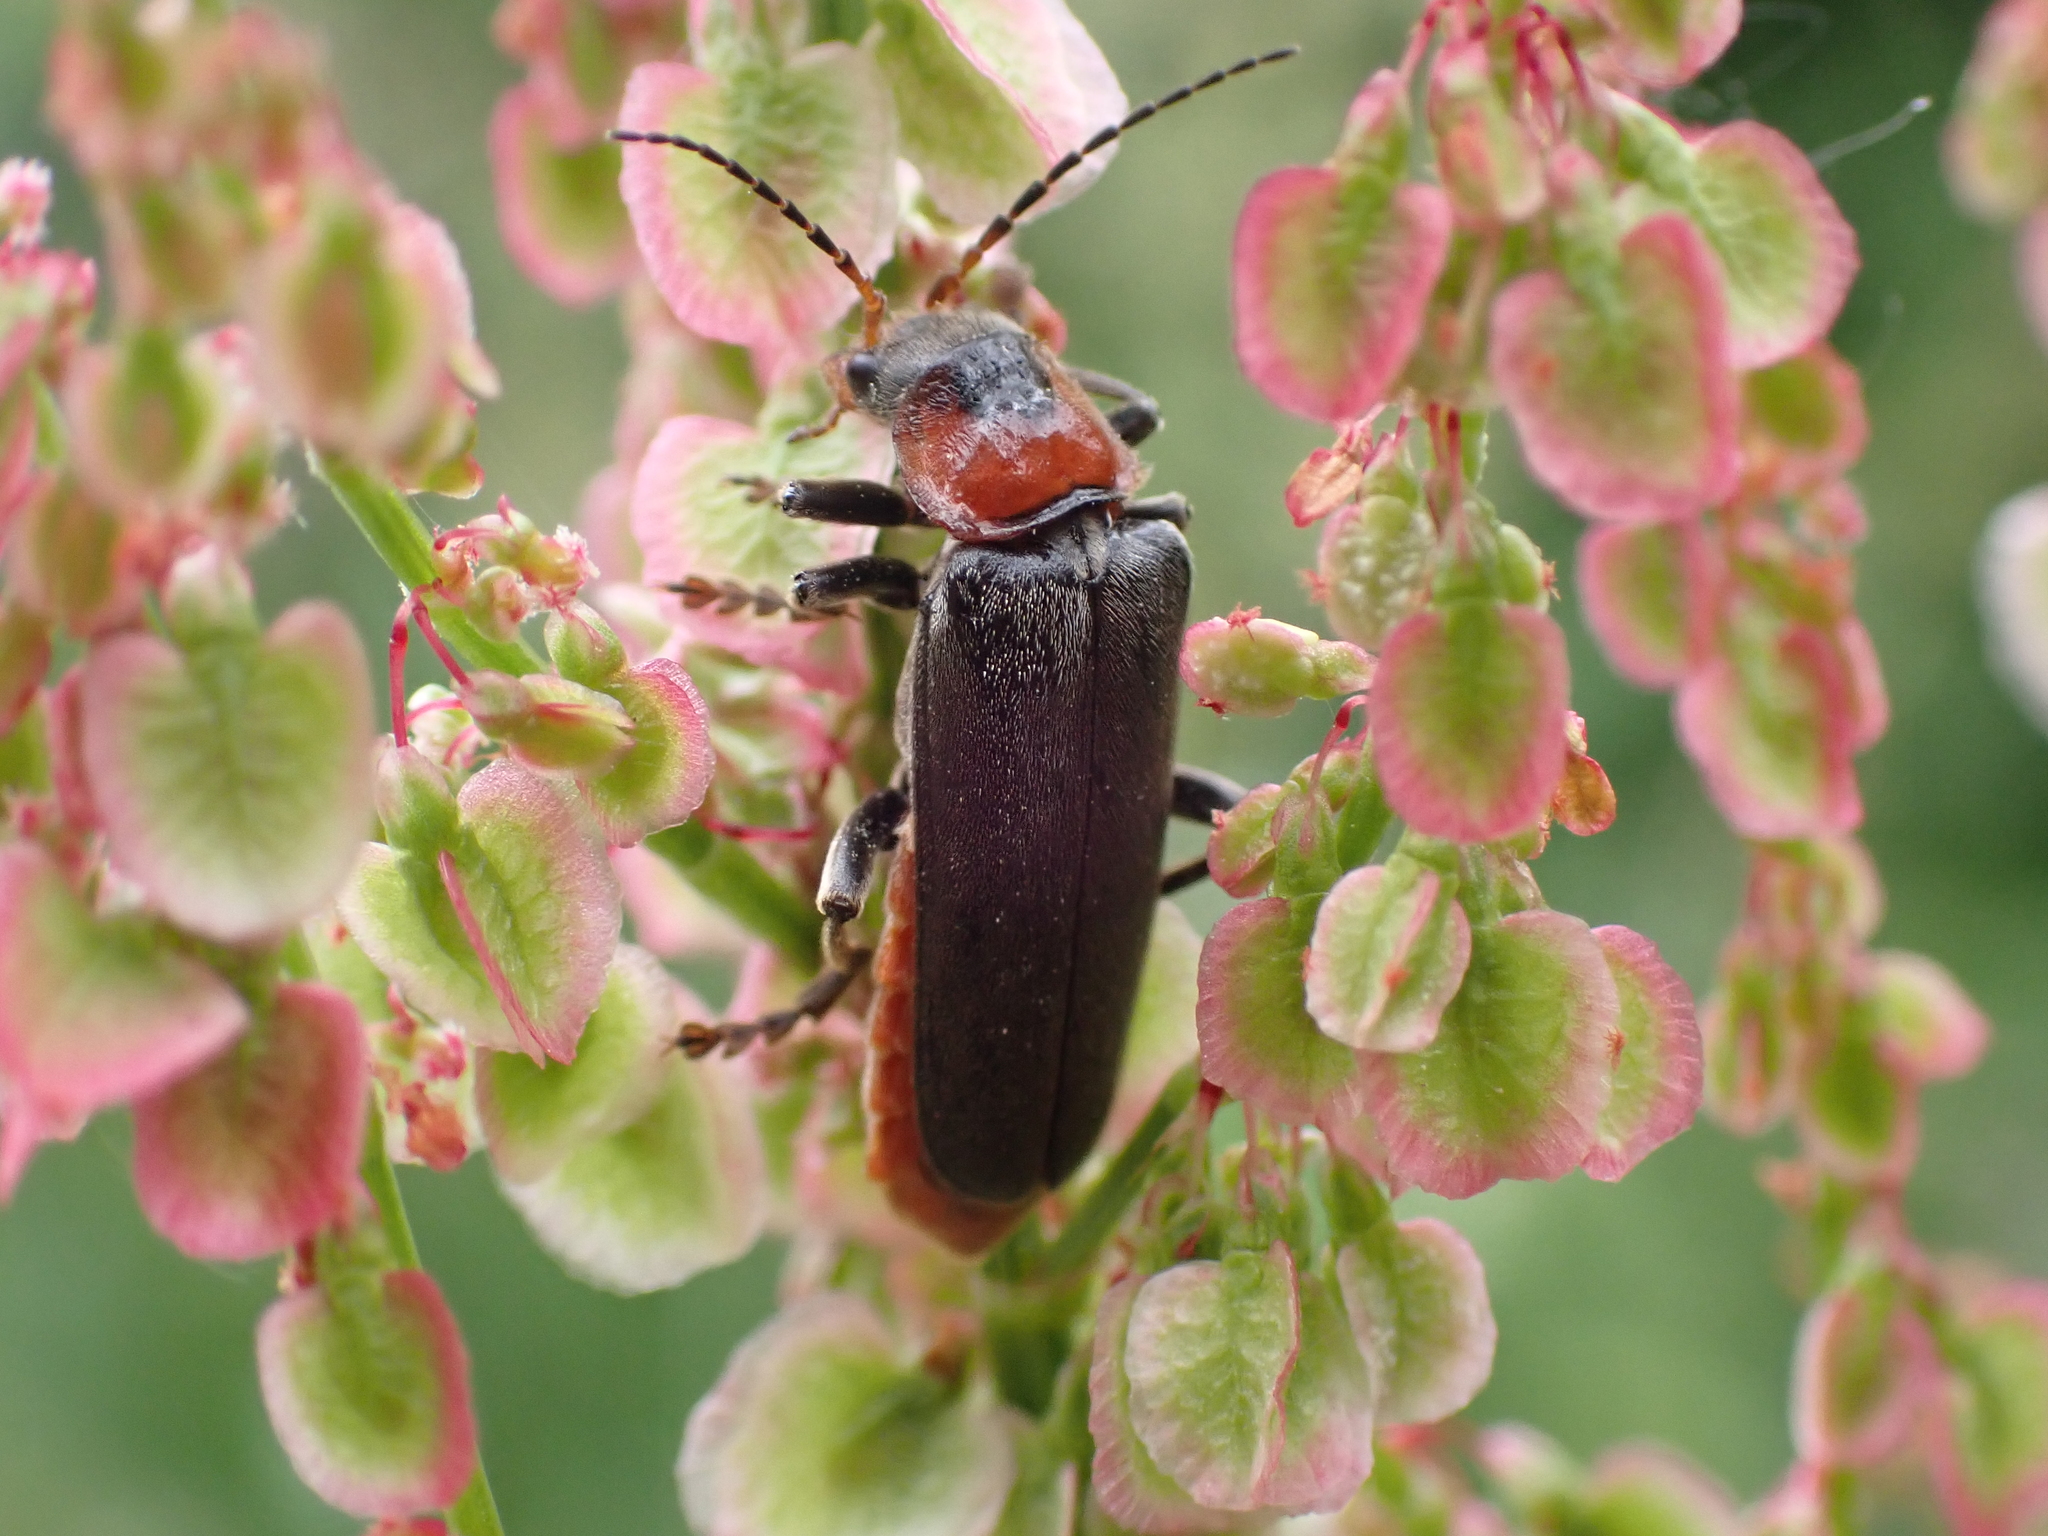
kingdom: Animalia
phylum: Arthropoda
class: Insecta
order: Coleoptera
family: Cantharidae
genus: Cantharis
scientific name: Cantharis fusca
